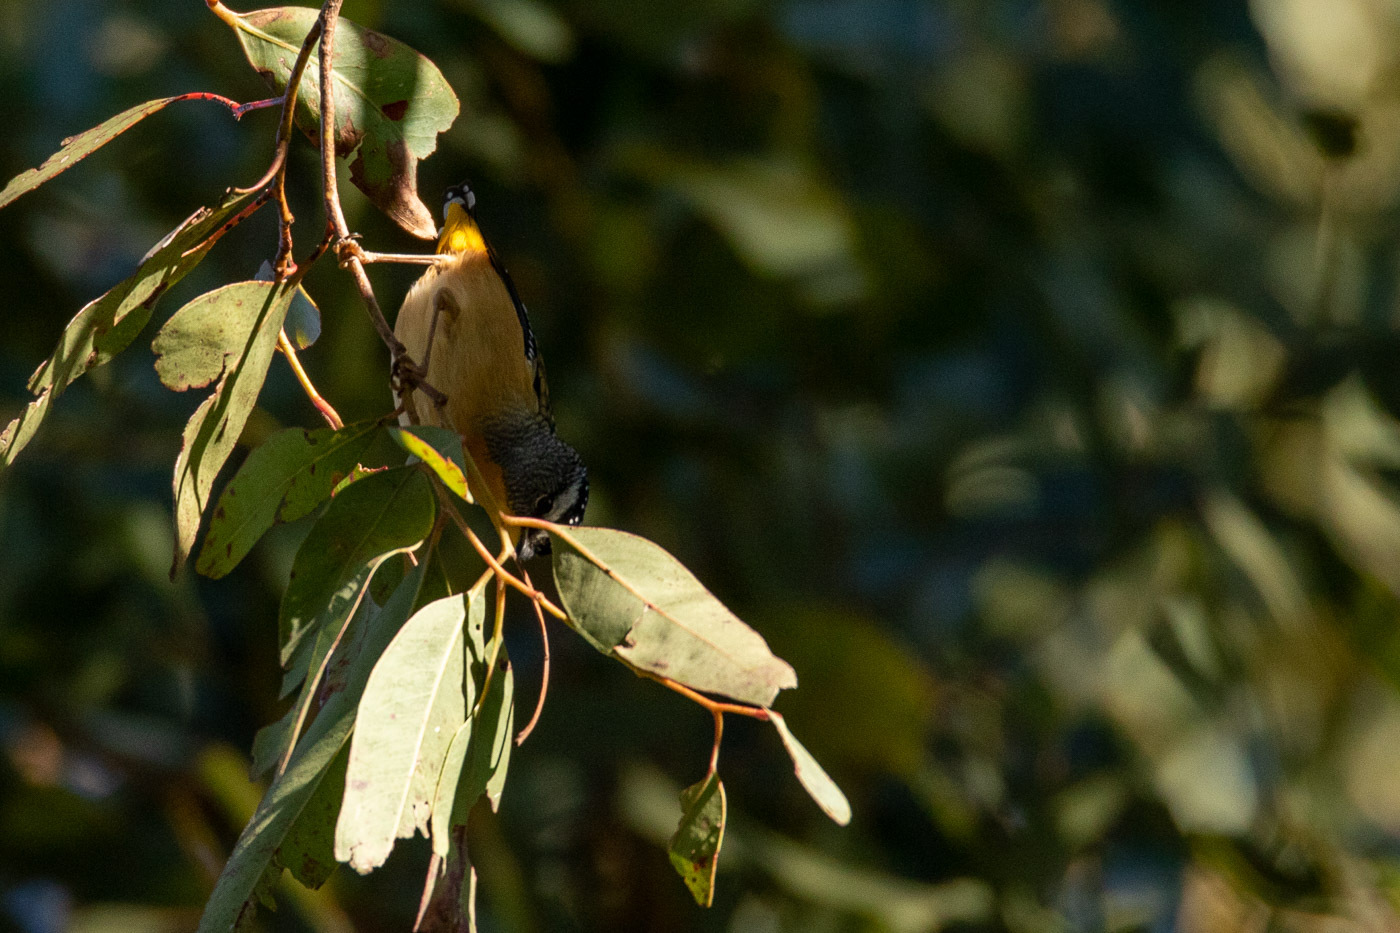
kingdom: Animalia
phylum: Chordata
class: Aves
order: Passeriformes
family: Pardalotidae
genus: Pardalotus
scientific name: Pardalotus punctatus
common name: Spotted pardalote
